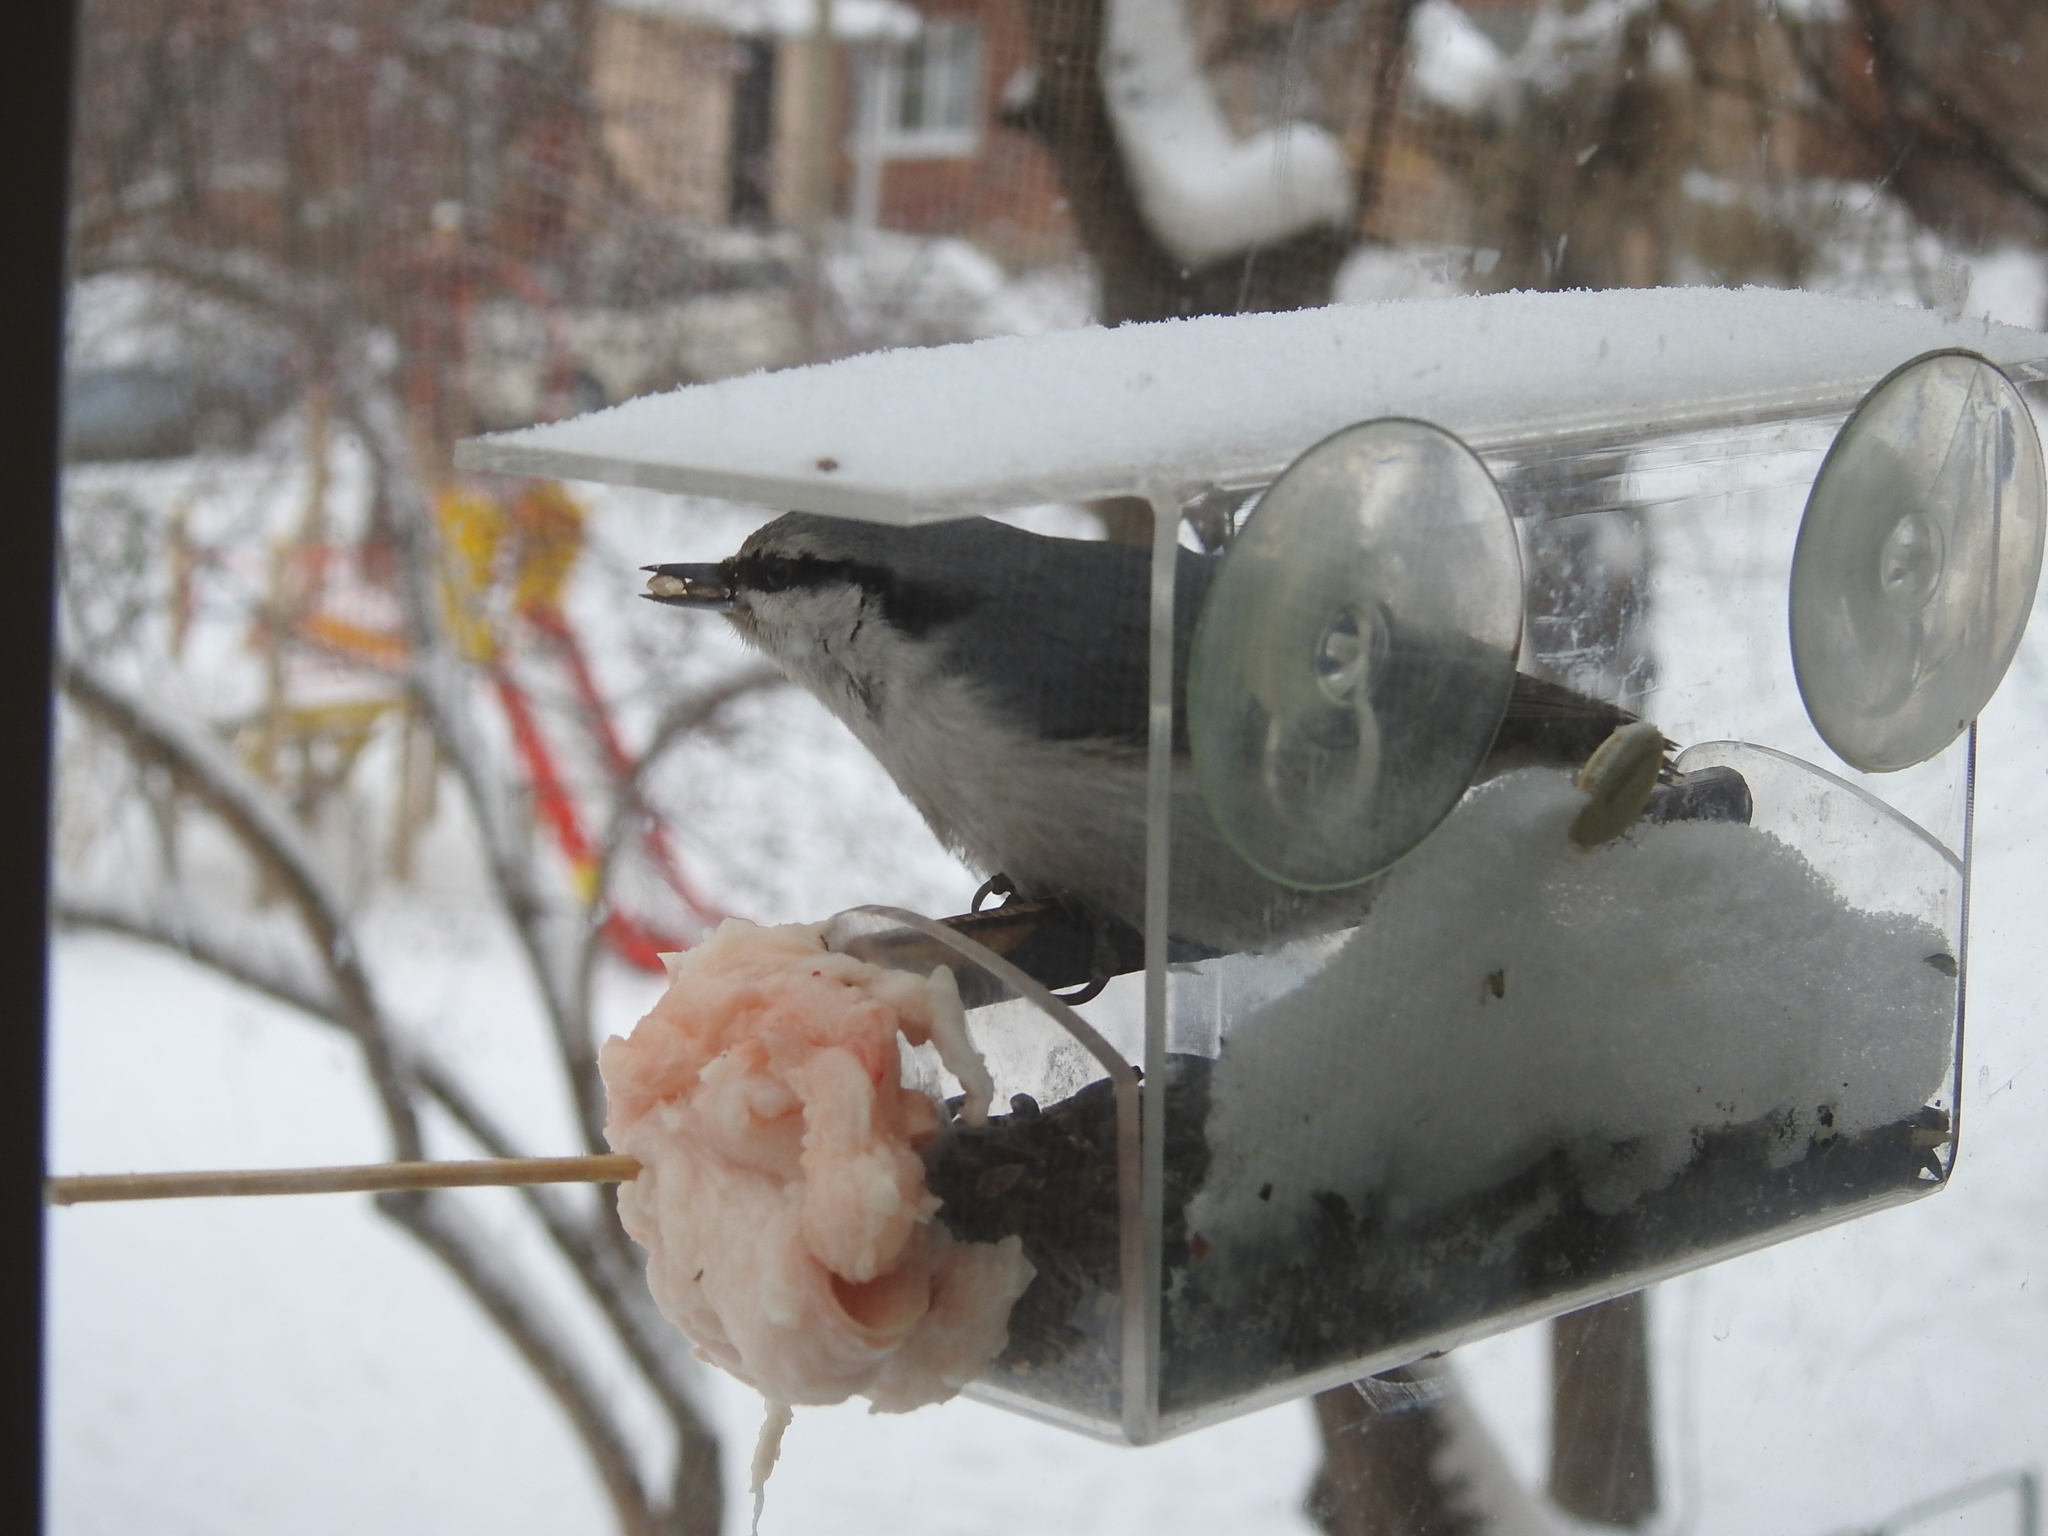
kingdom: Animalia
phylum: Chordata
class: Aves
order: Passeriformes
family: Sittidae
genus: Sitta
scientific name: Sitta europaea
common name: Eurasian nuthatch
